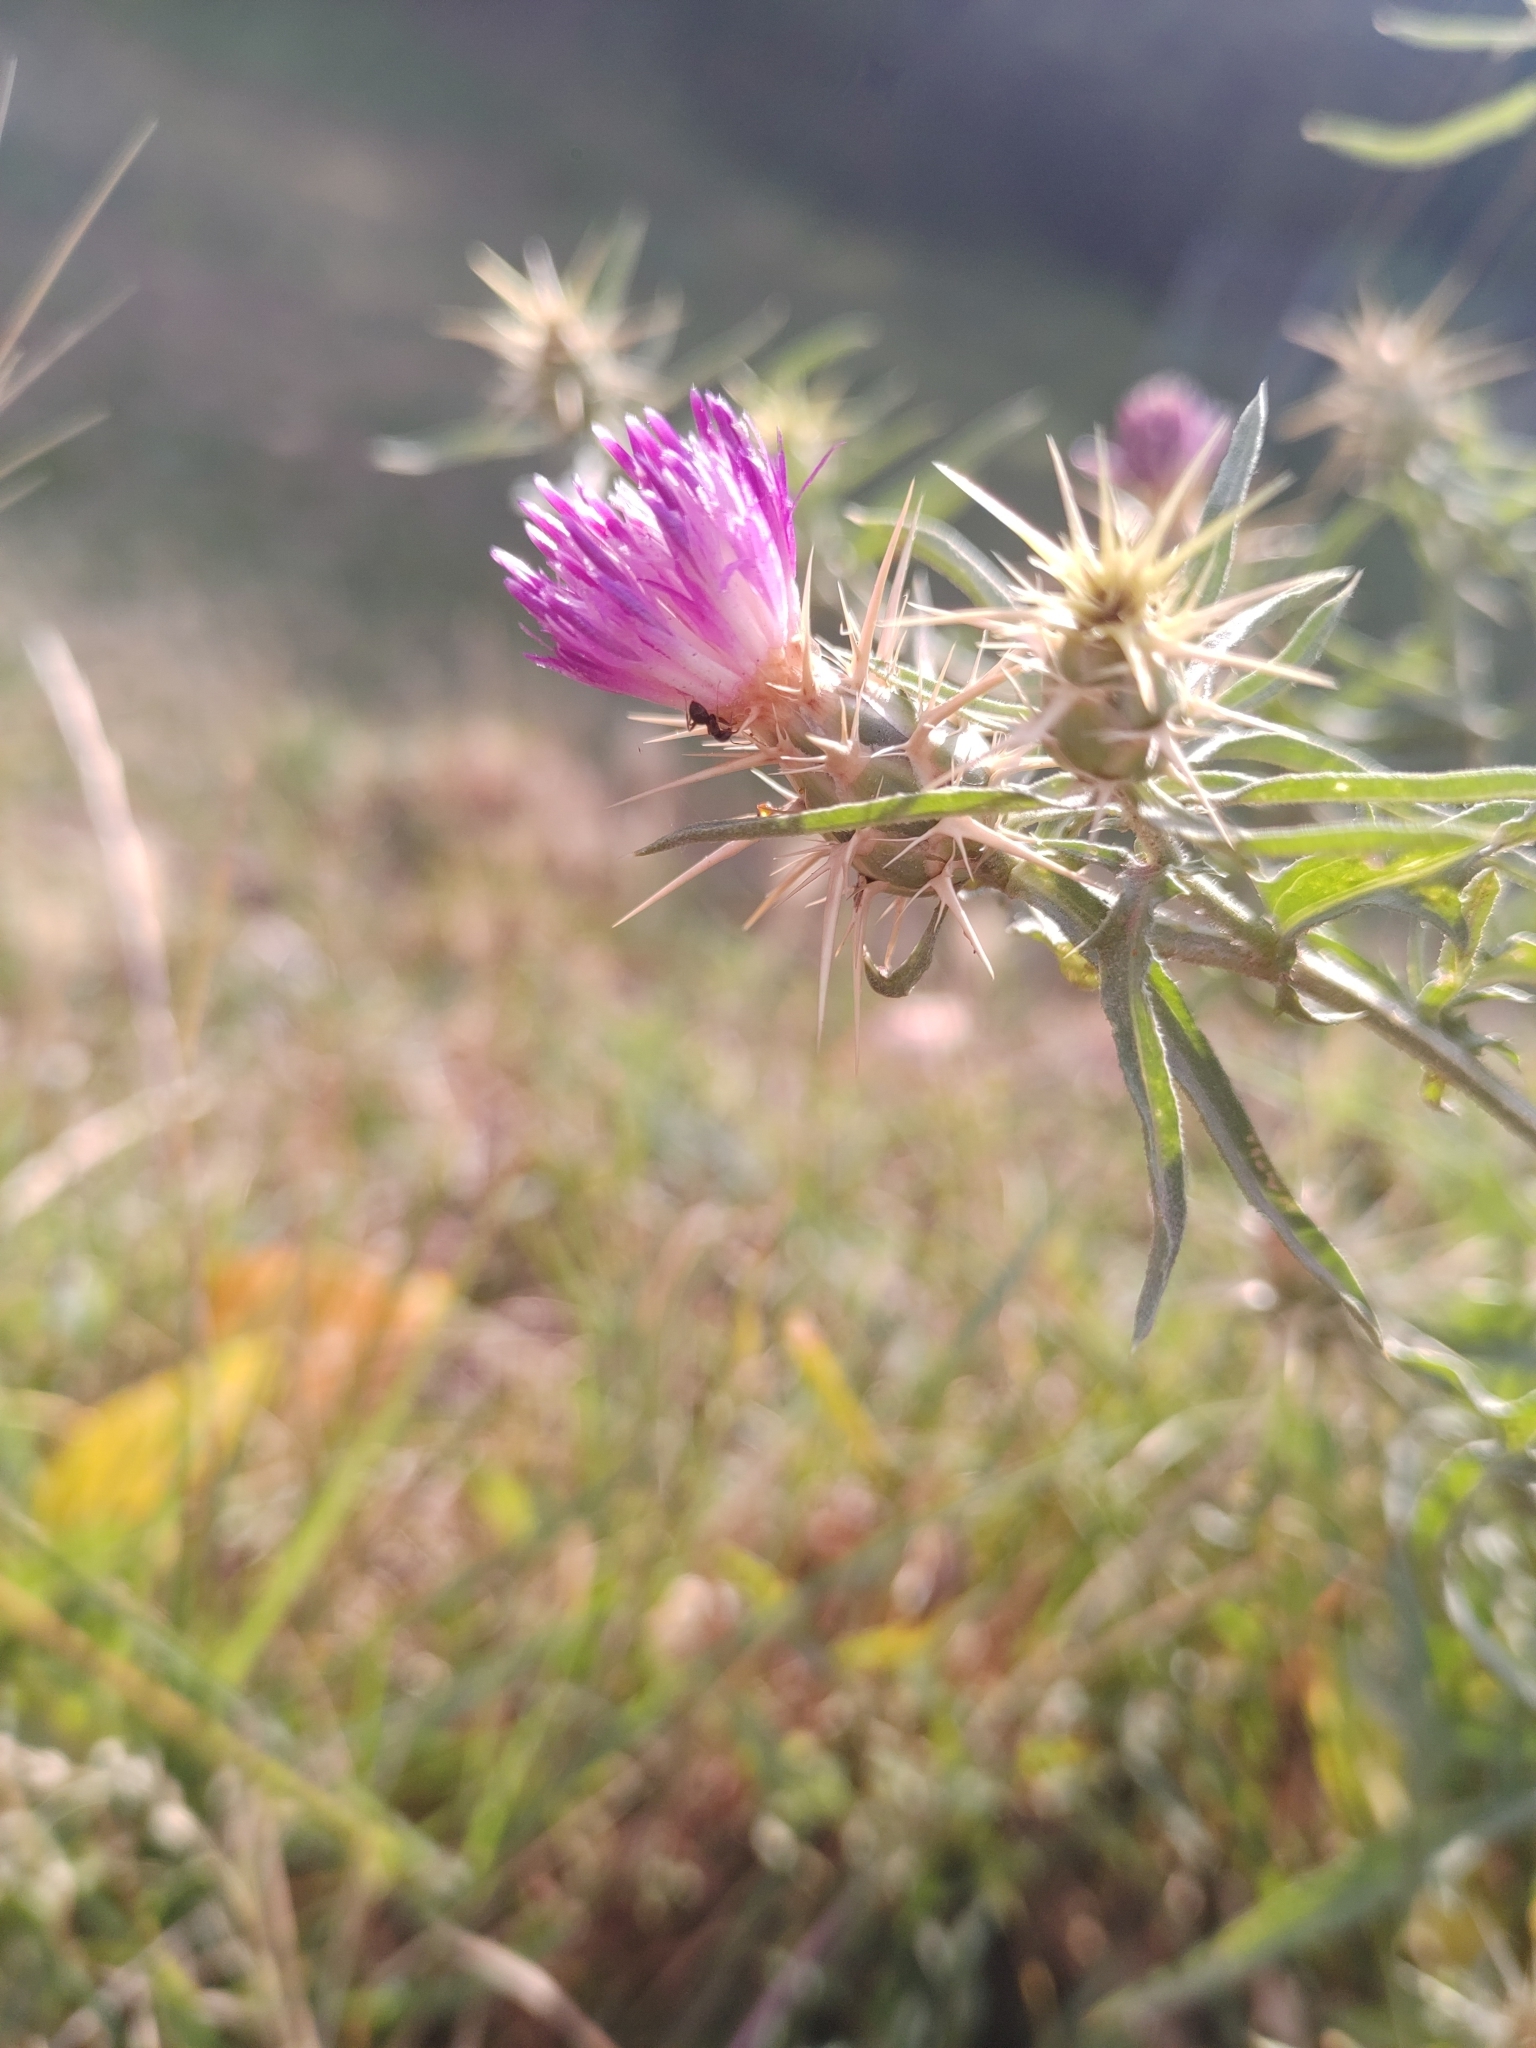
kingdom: Plantae
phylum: Tracheophyta
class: Magnoliopsida
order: Asterales
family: Asteraceae
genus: Centaurea
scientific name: Centaurea calcitrapa
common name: Red star-thistle
